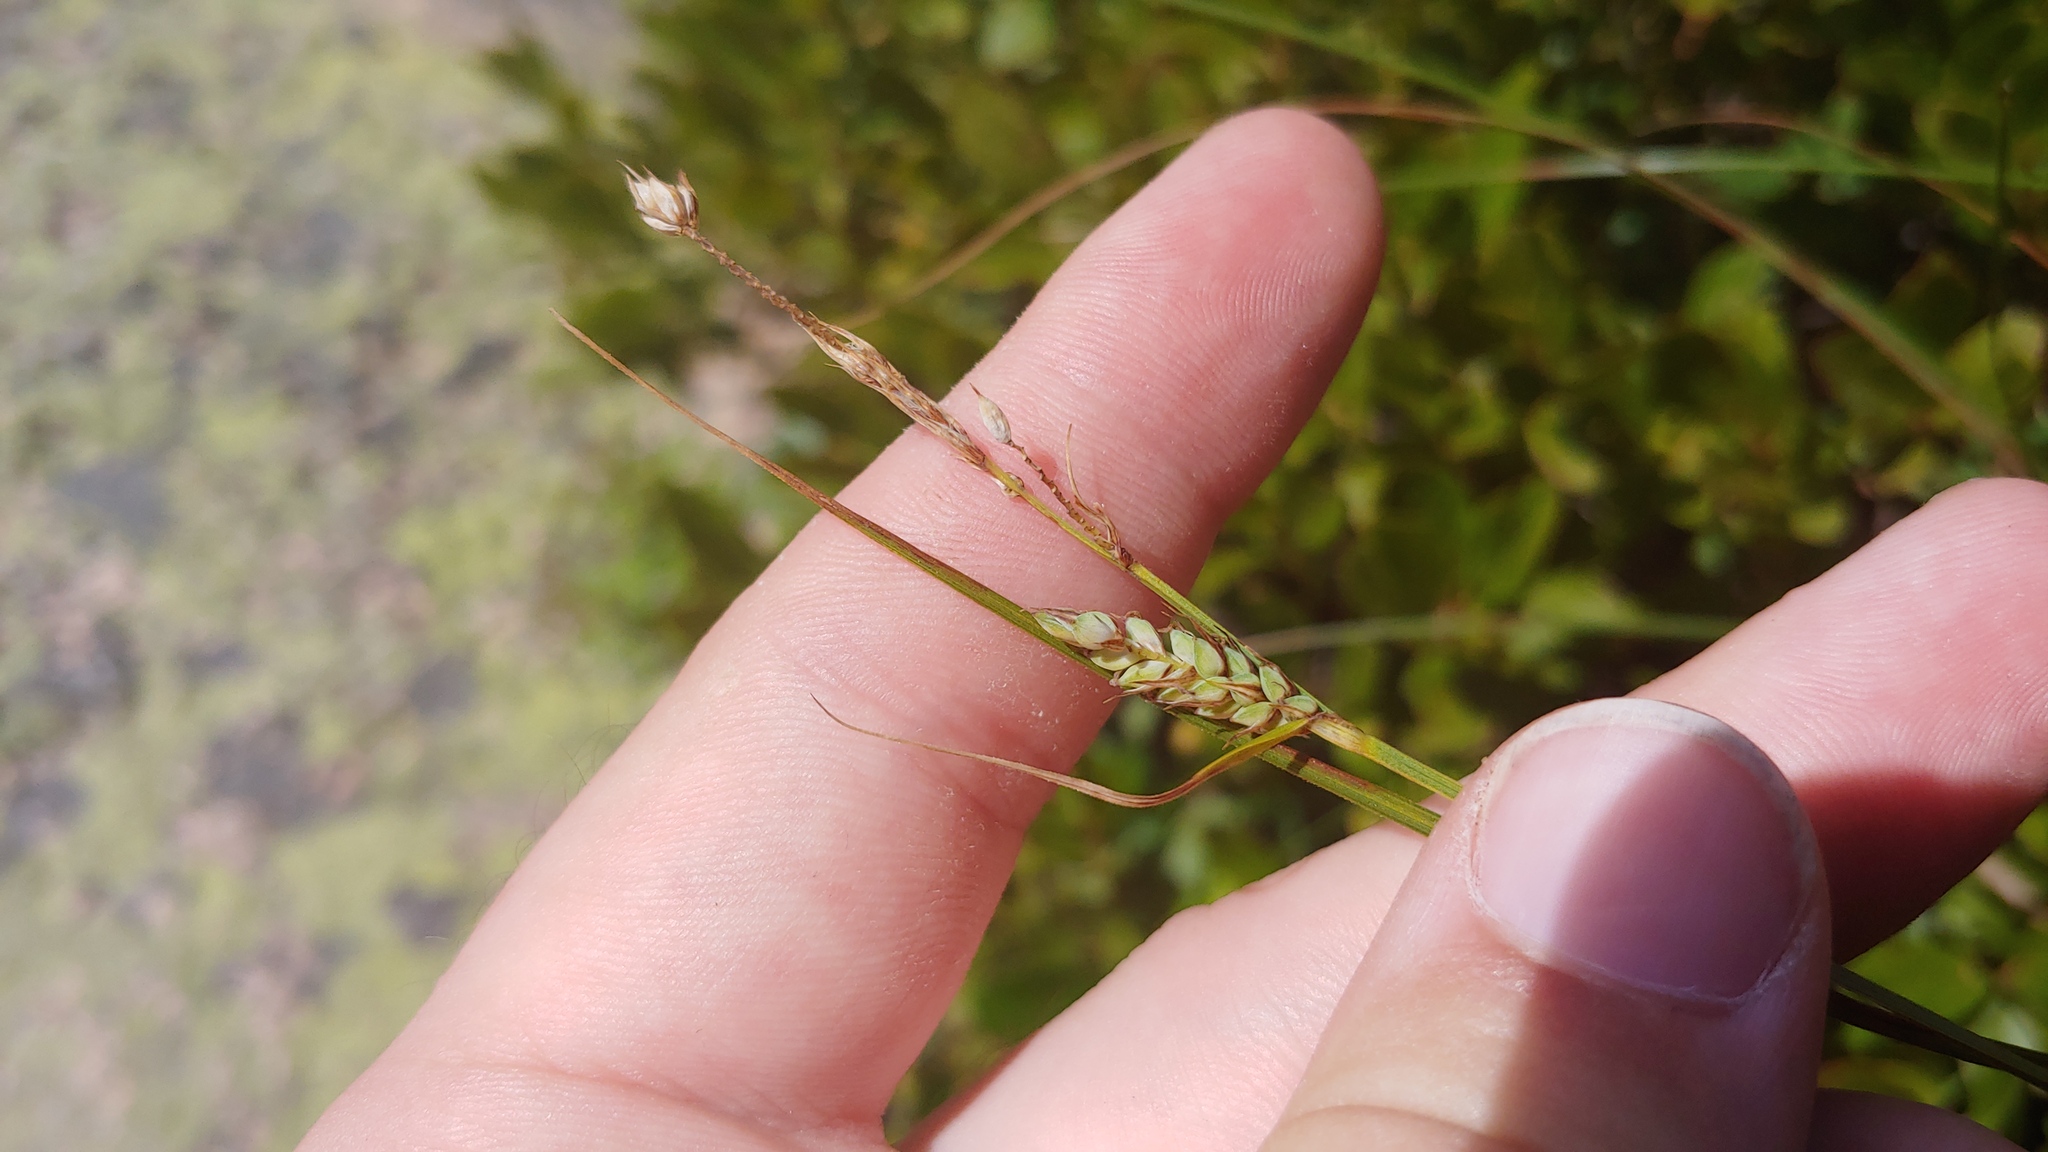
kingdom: Plantae
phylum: Tracheophyta
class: Liliopsida
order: Poales
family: Cyperaceae
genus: Carex
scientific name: Carex buxbaumii
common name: Club sedge
